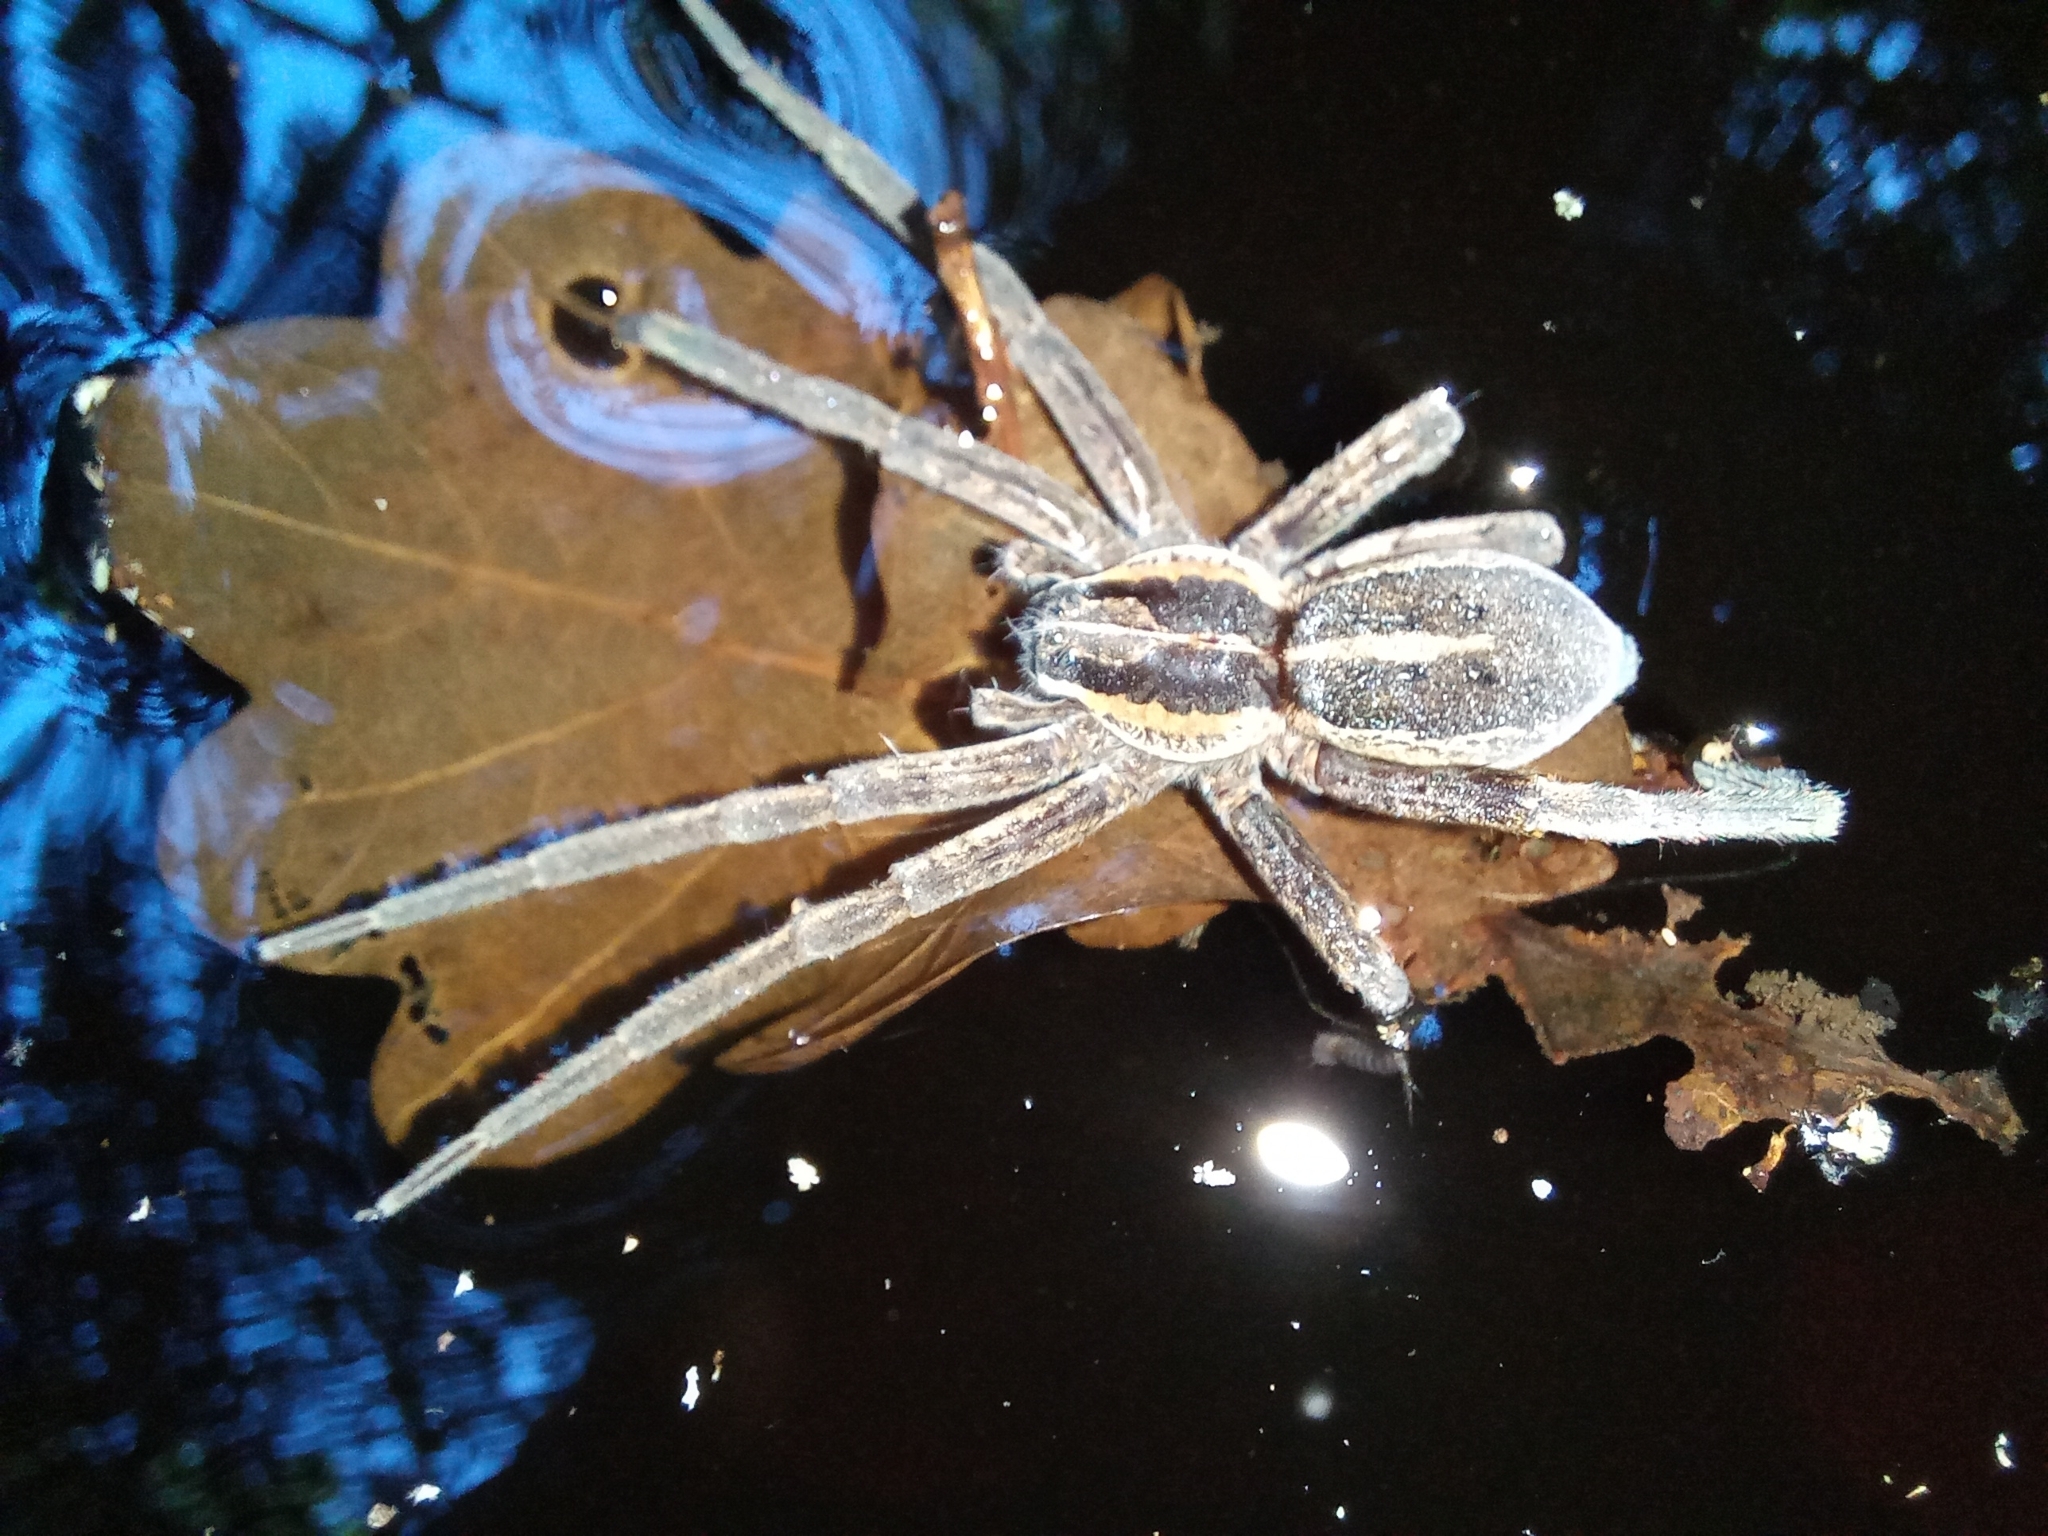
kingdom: Animalia
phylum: Arthropoda
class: Arachnida
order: Araneae
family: Pisauridae
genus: Dolomedes
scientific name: Dolomedes minor
